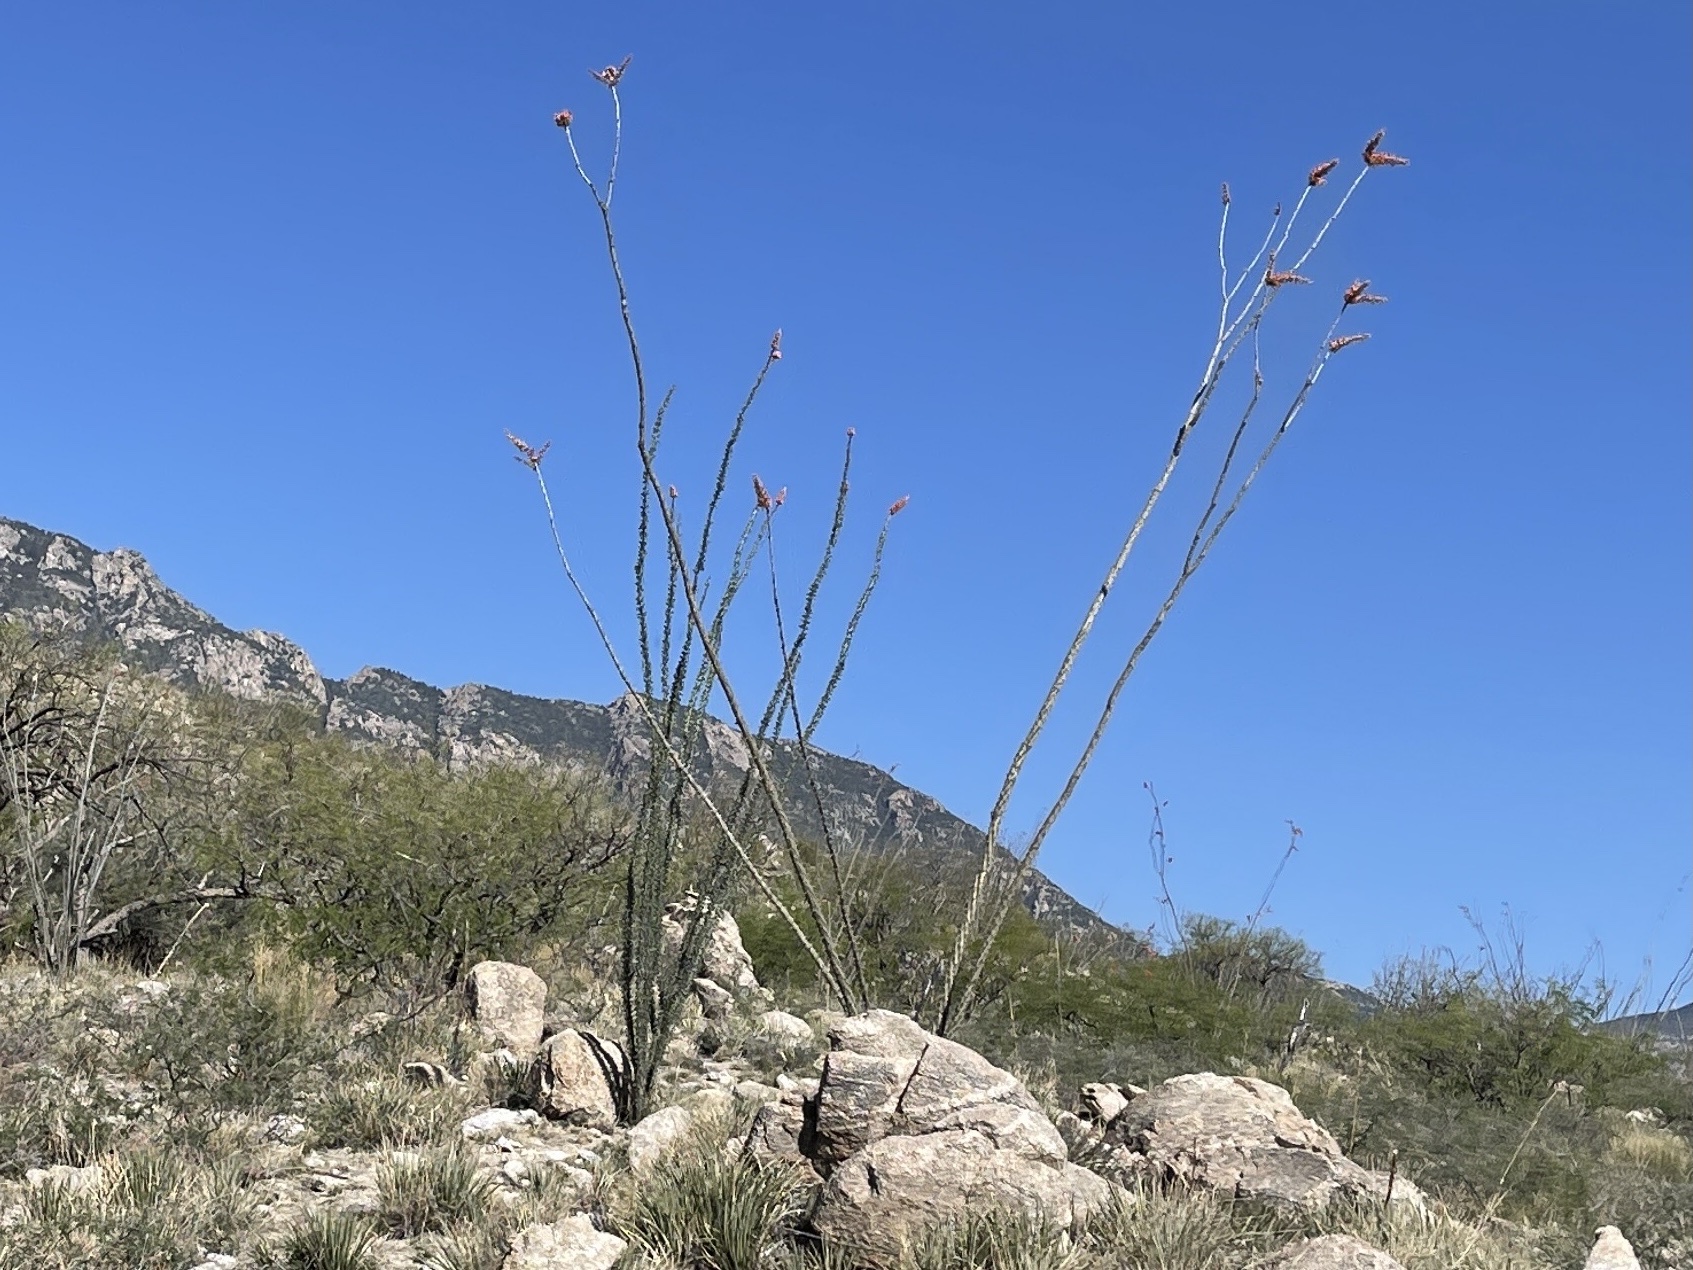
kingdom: Plantae
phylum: Tracheophyta
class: Magnoliopsida
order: Ericales
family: Fouquieriaceae
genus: Fouquieria
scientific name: Fouquieria splendens
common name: Vine-cactus
